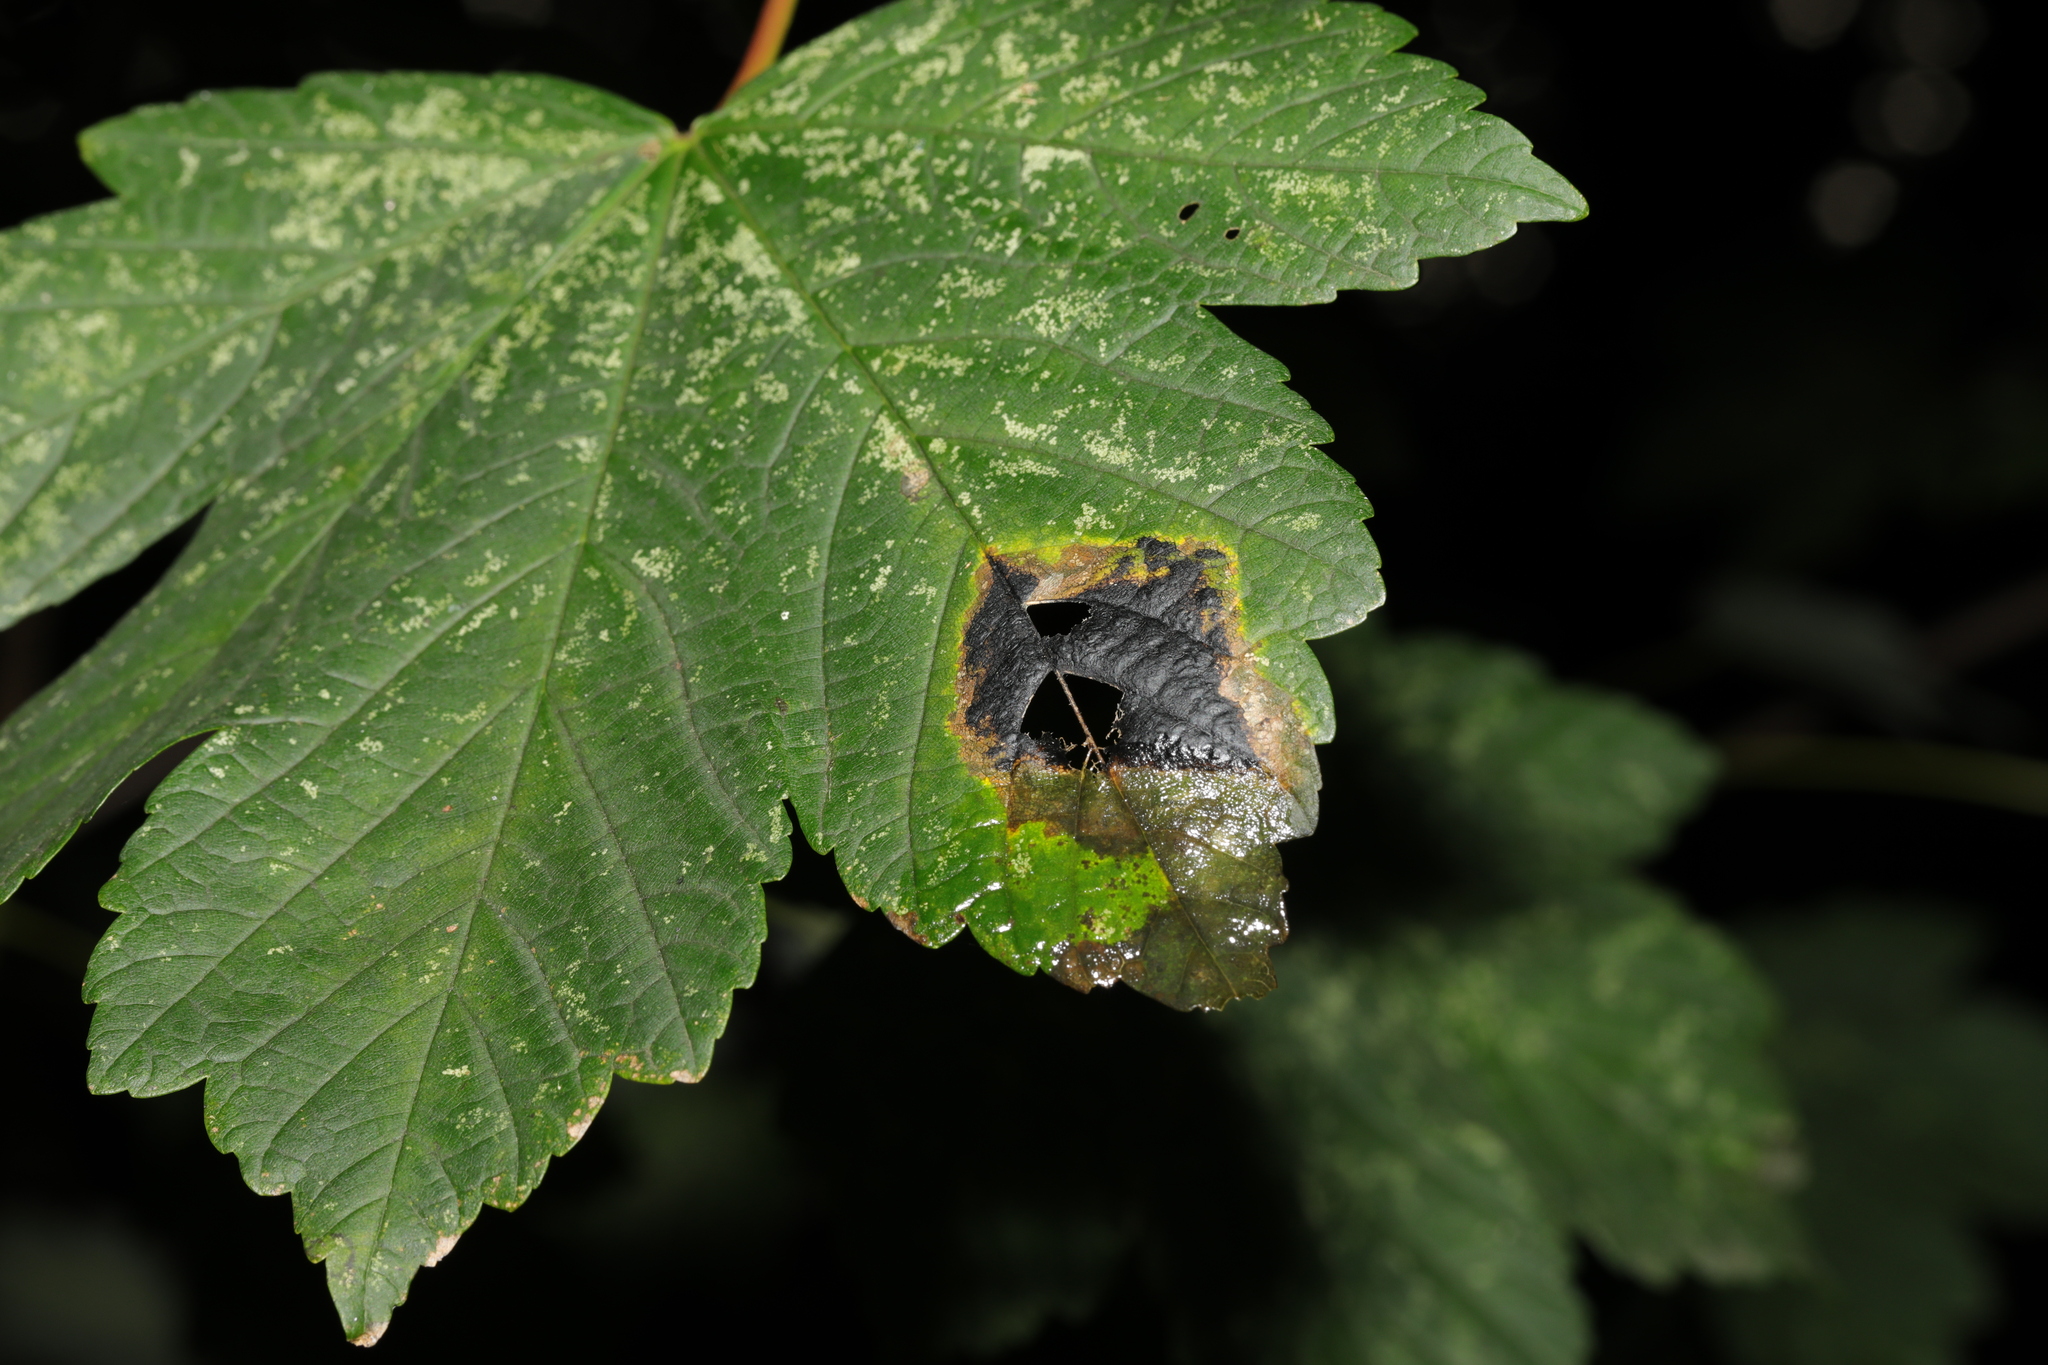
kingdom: Fungi
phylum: Ascomycota
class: Leotiomycetes
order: Rhytismatales
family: Rhytismataceae
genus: Rhytisma
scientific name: Rhytisma acerinum
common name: European tar spot
